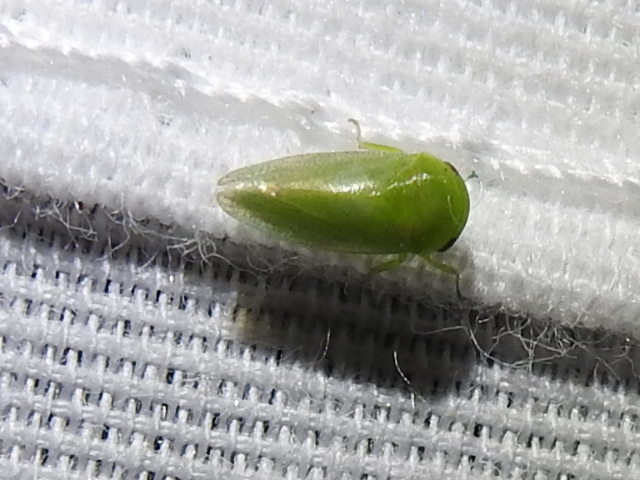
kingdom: Animalia
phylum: Arthropoda
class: Insecta
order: Hemiptera
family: Cicadellidae
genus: Penestragania
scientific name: Penestragania robusta
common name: Robust leafhopper
